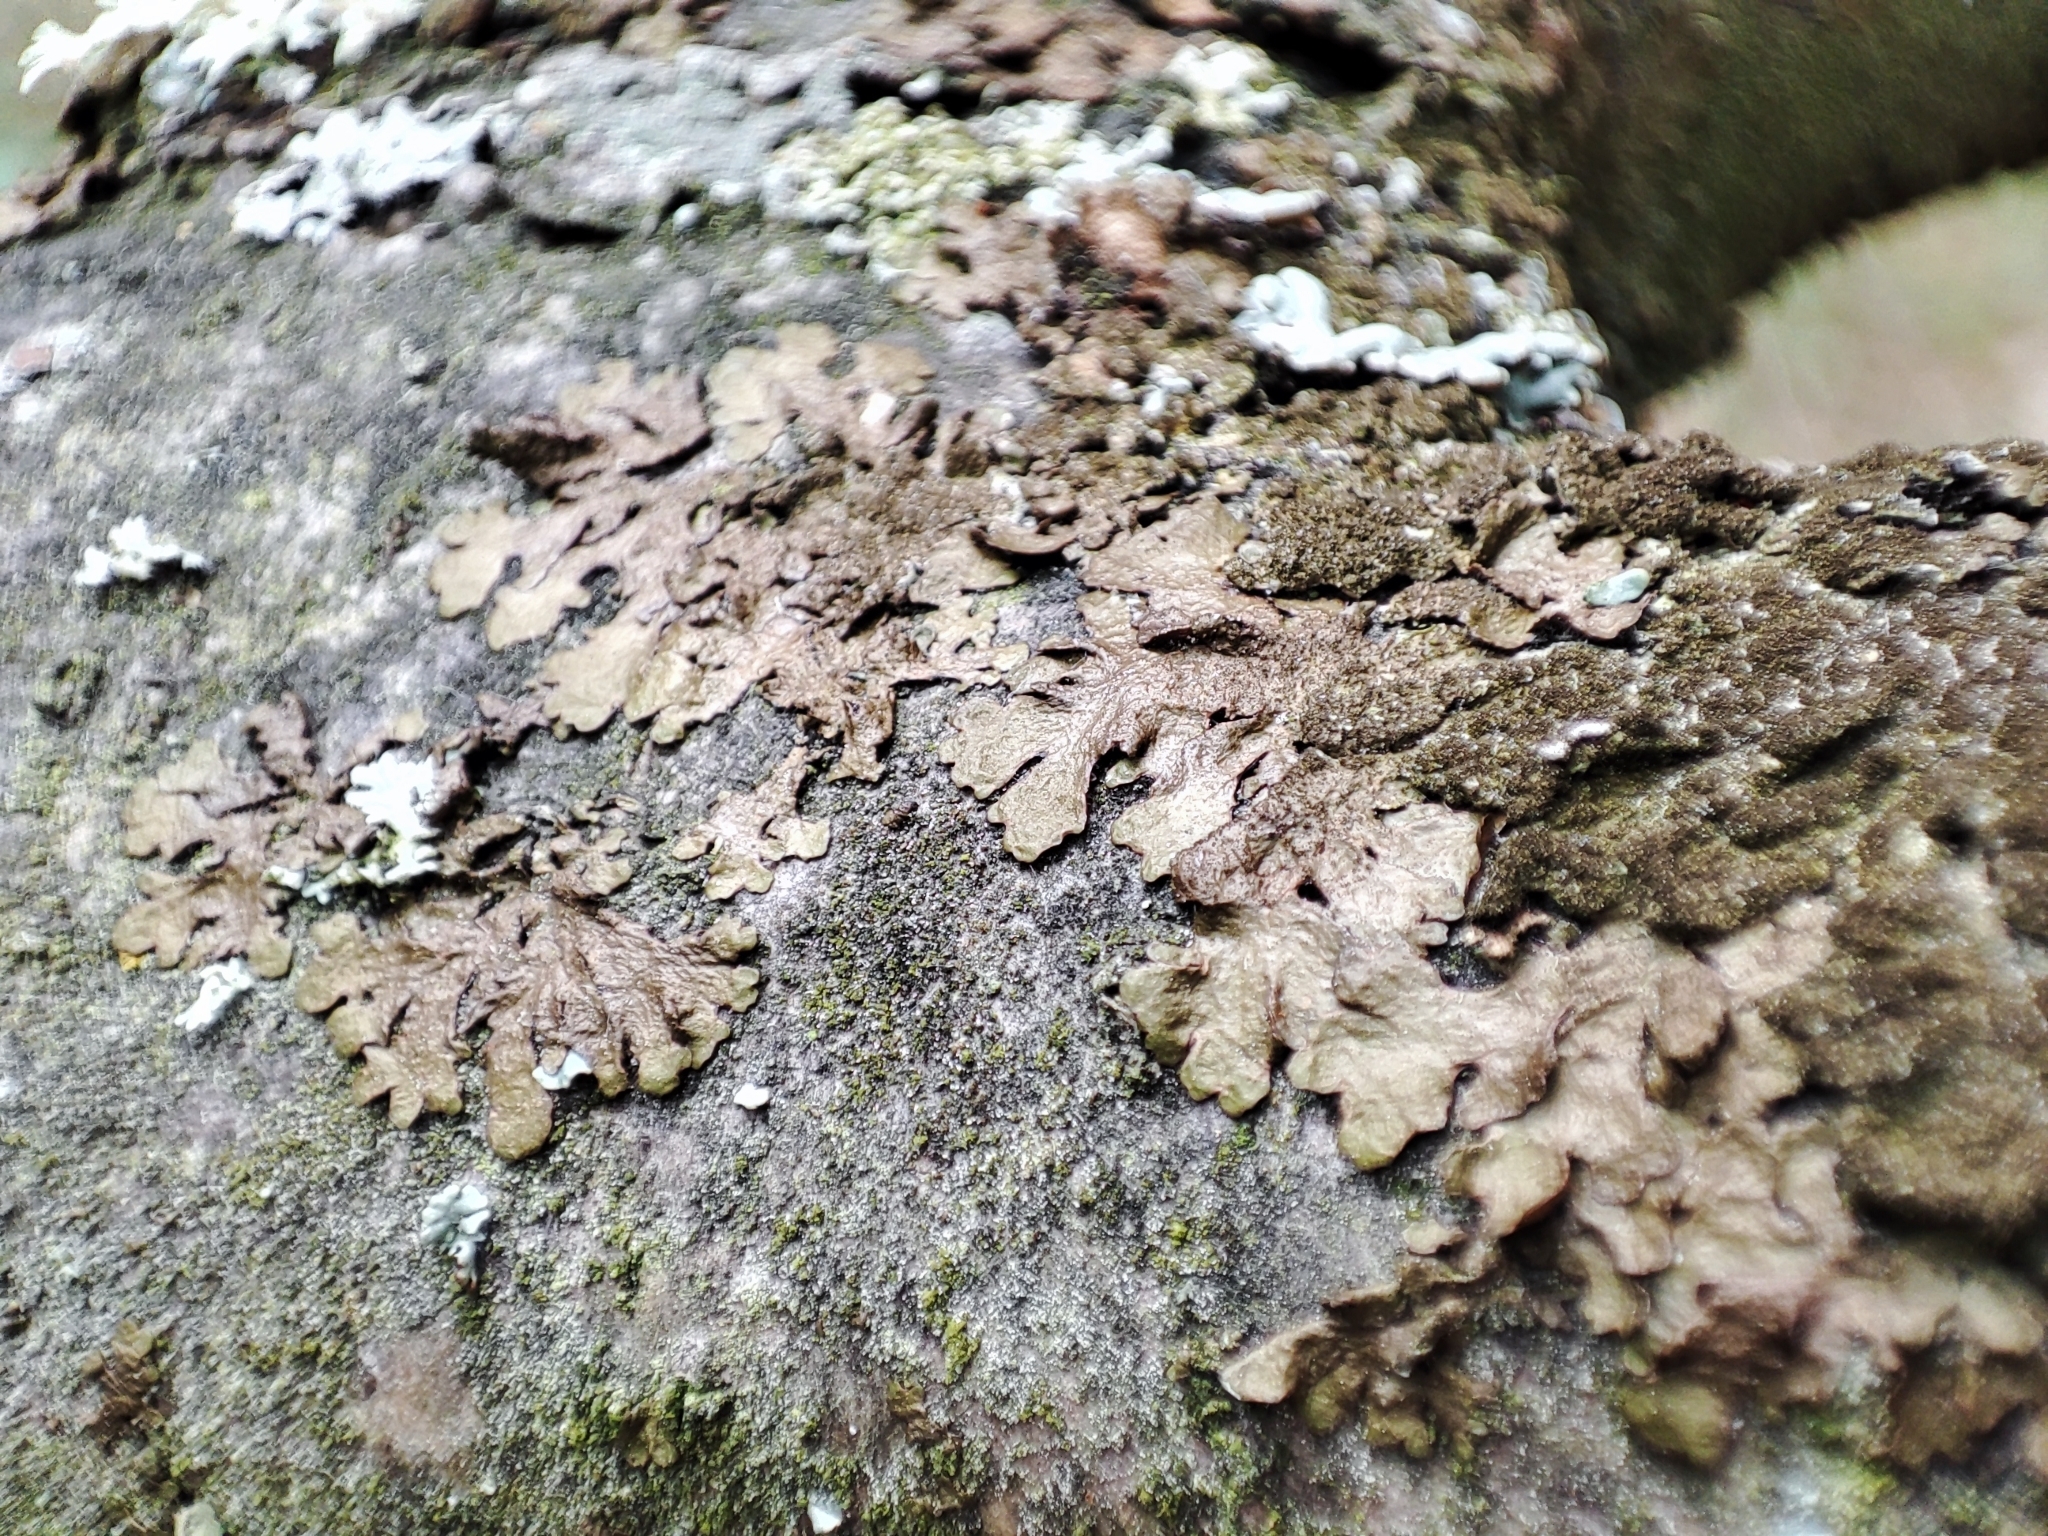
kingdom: Fungi
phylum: Ascomycota
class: Lecanoromycetes
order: Lecanorales
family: Parmeliaceae
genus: Melanelixia
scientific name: Melanelixia glabratula
